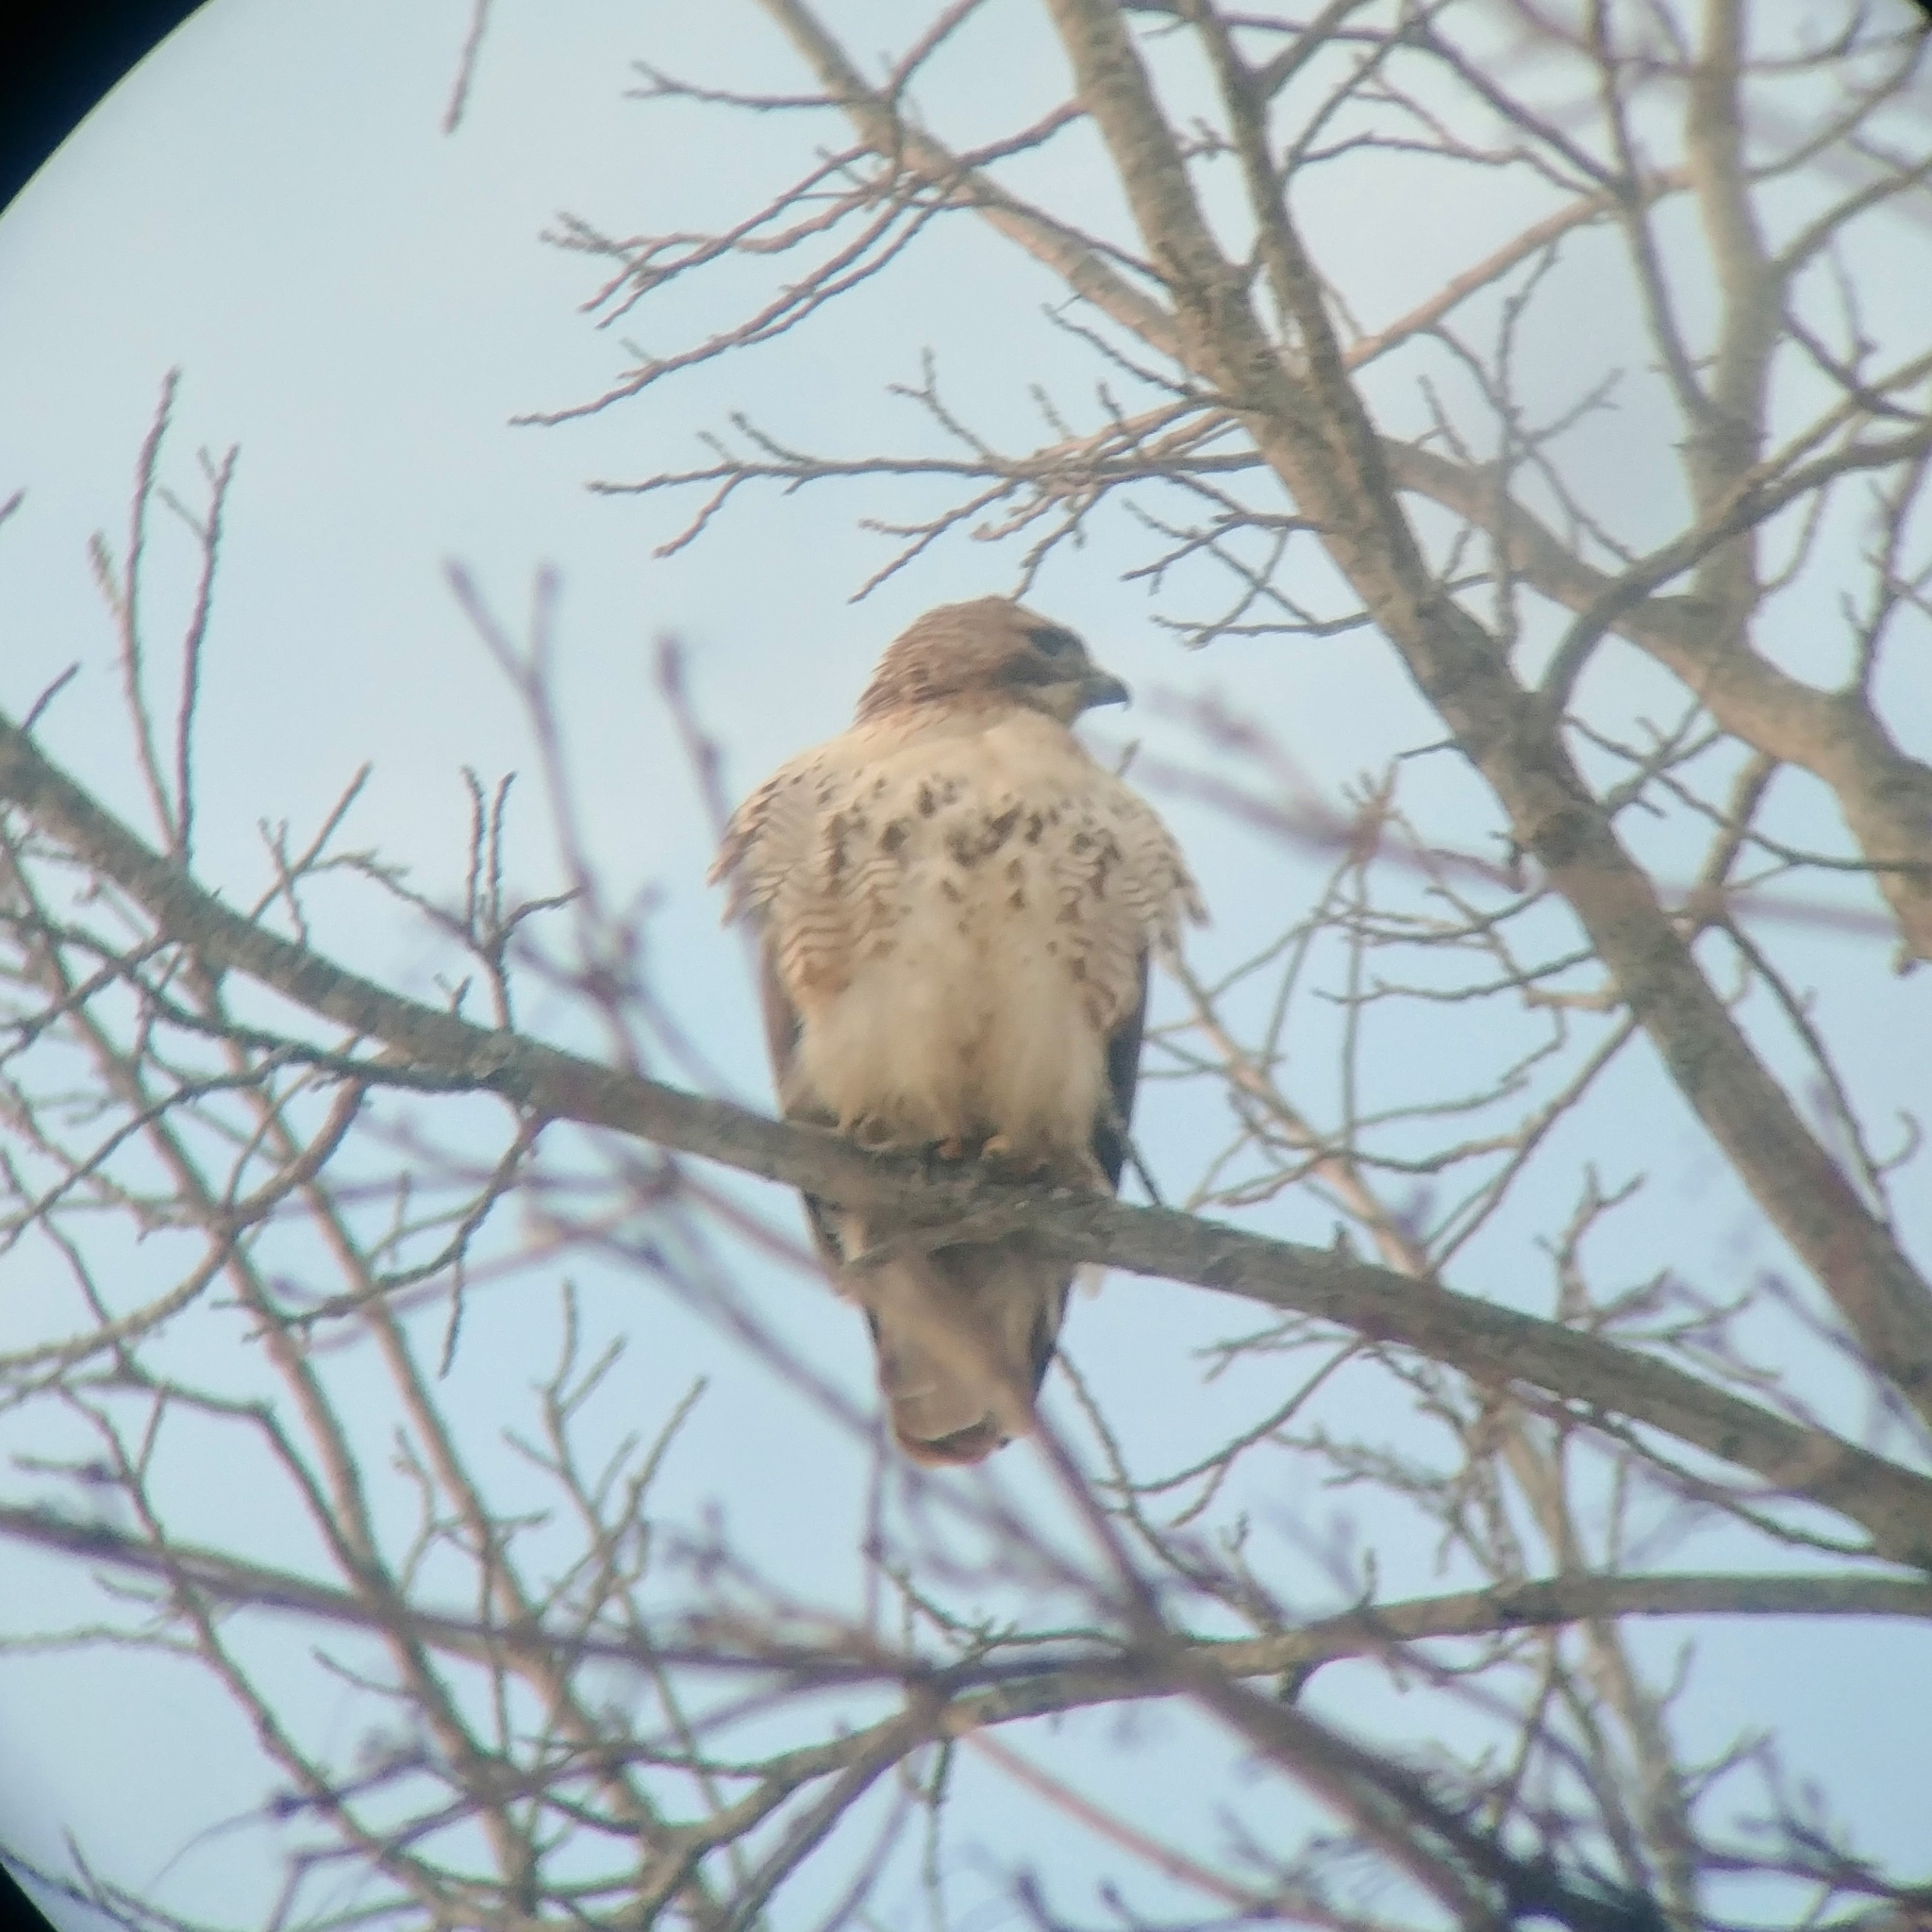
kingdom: Animalia
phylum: Chordata
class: Aves
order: Accipitriformes
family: Accipitridae
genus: Buteo
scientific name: Buteo jamaicensis
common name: Red-tailed hawk
